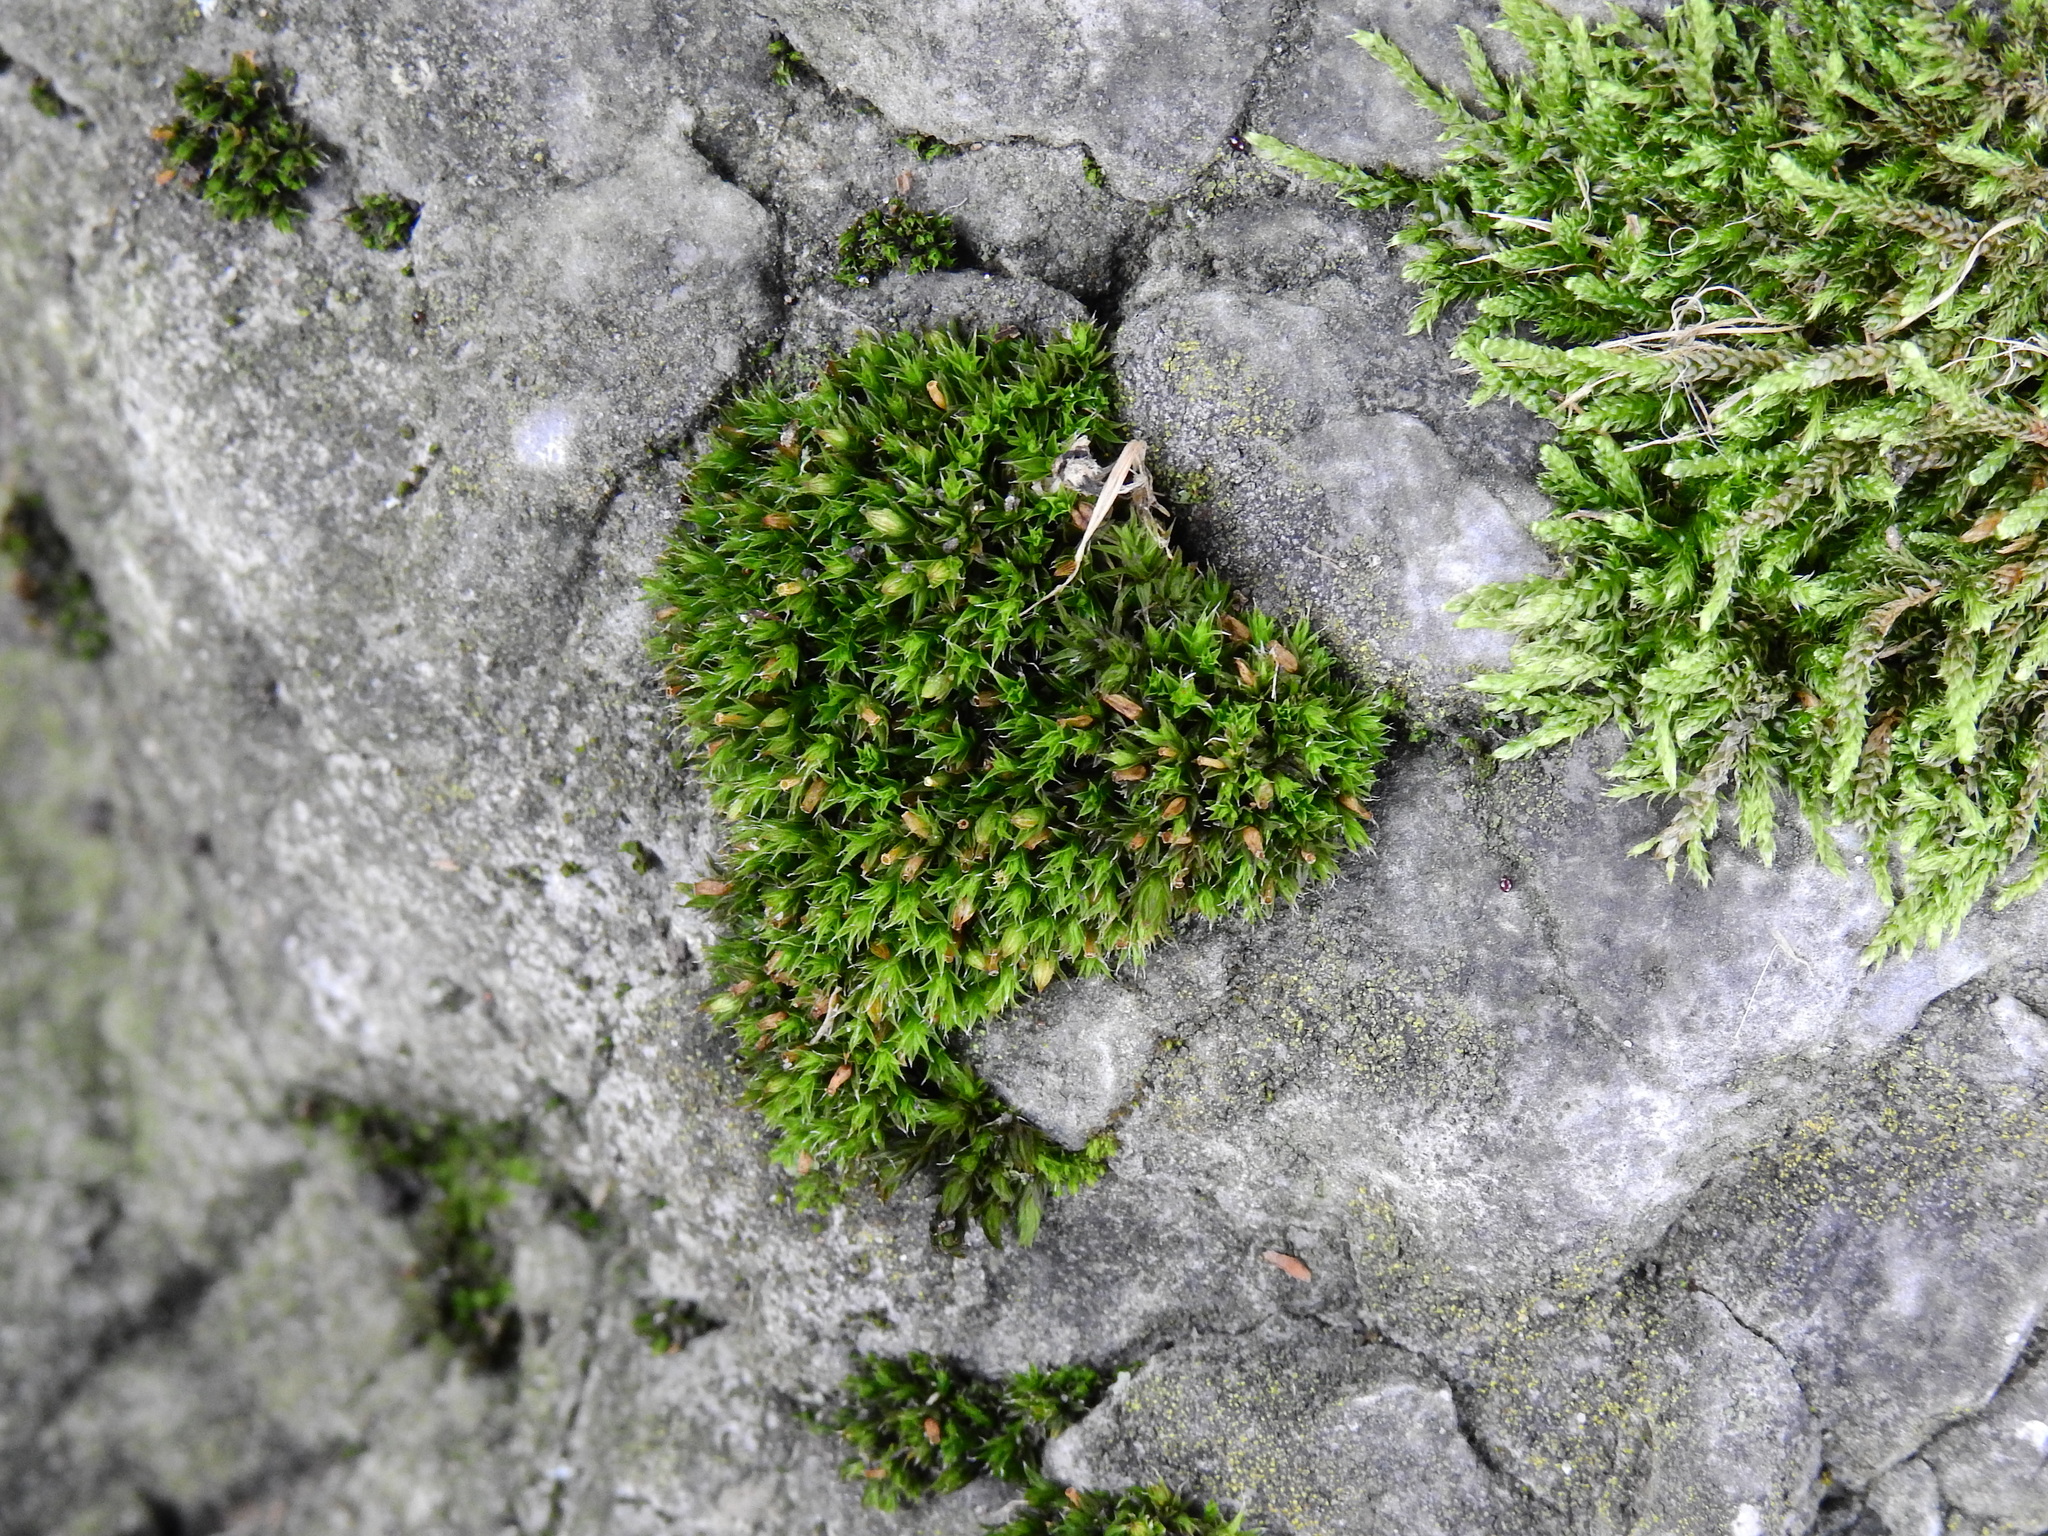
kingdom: Plantae
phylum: Bryophyta
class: Bryopsida
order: Orthotrichales
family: Orthotrichaceae
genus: Orthotrichum
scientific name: Orthotrichum diaphanum
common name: White-tipped bristle-moss
